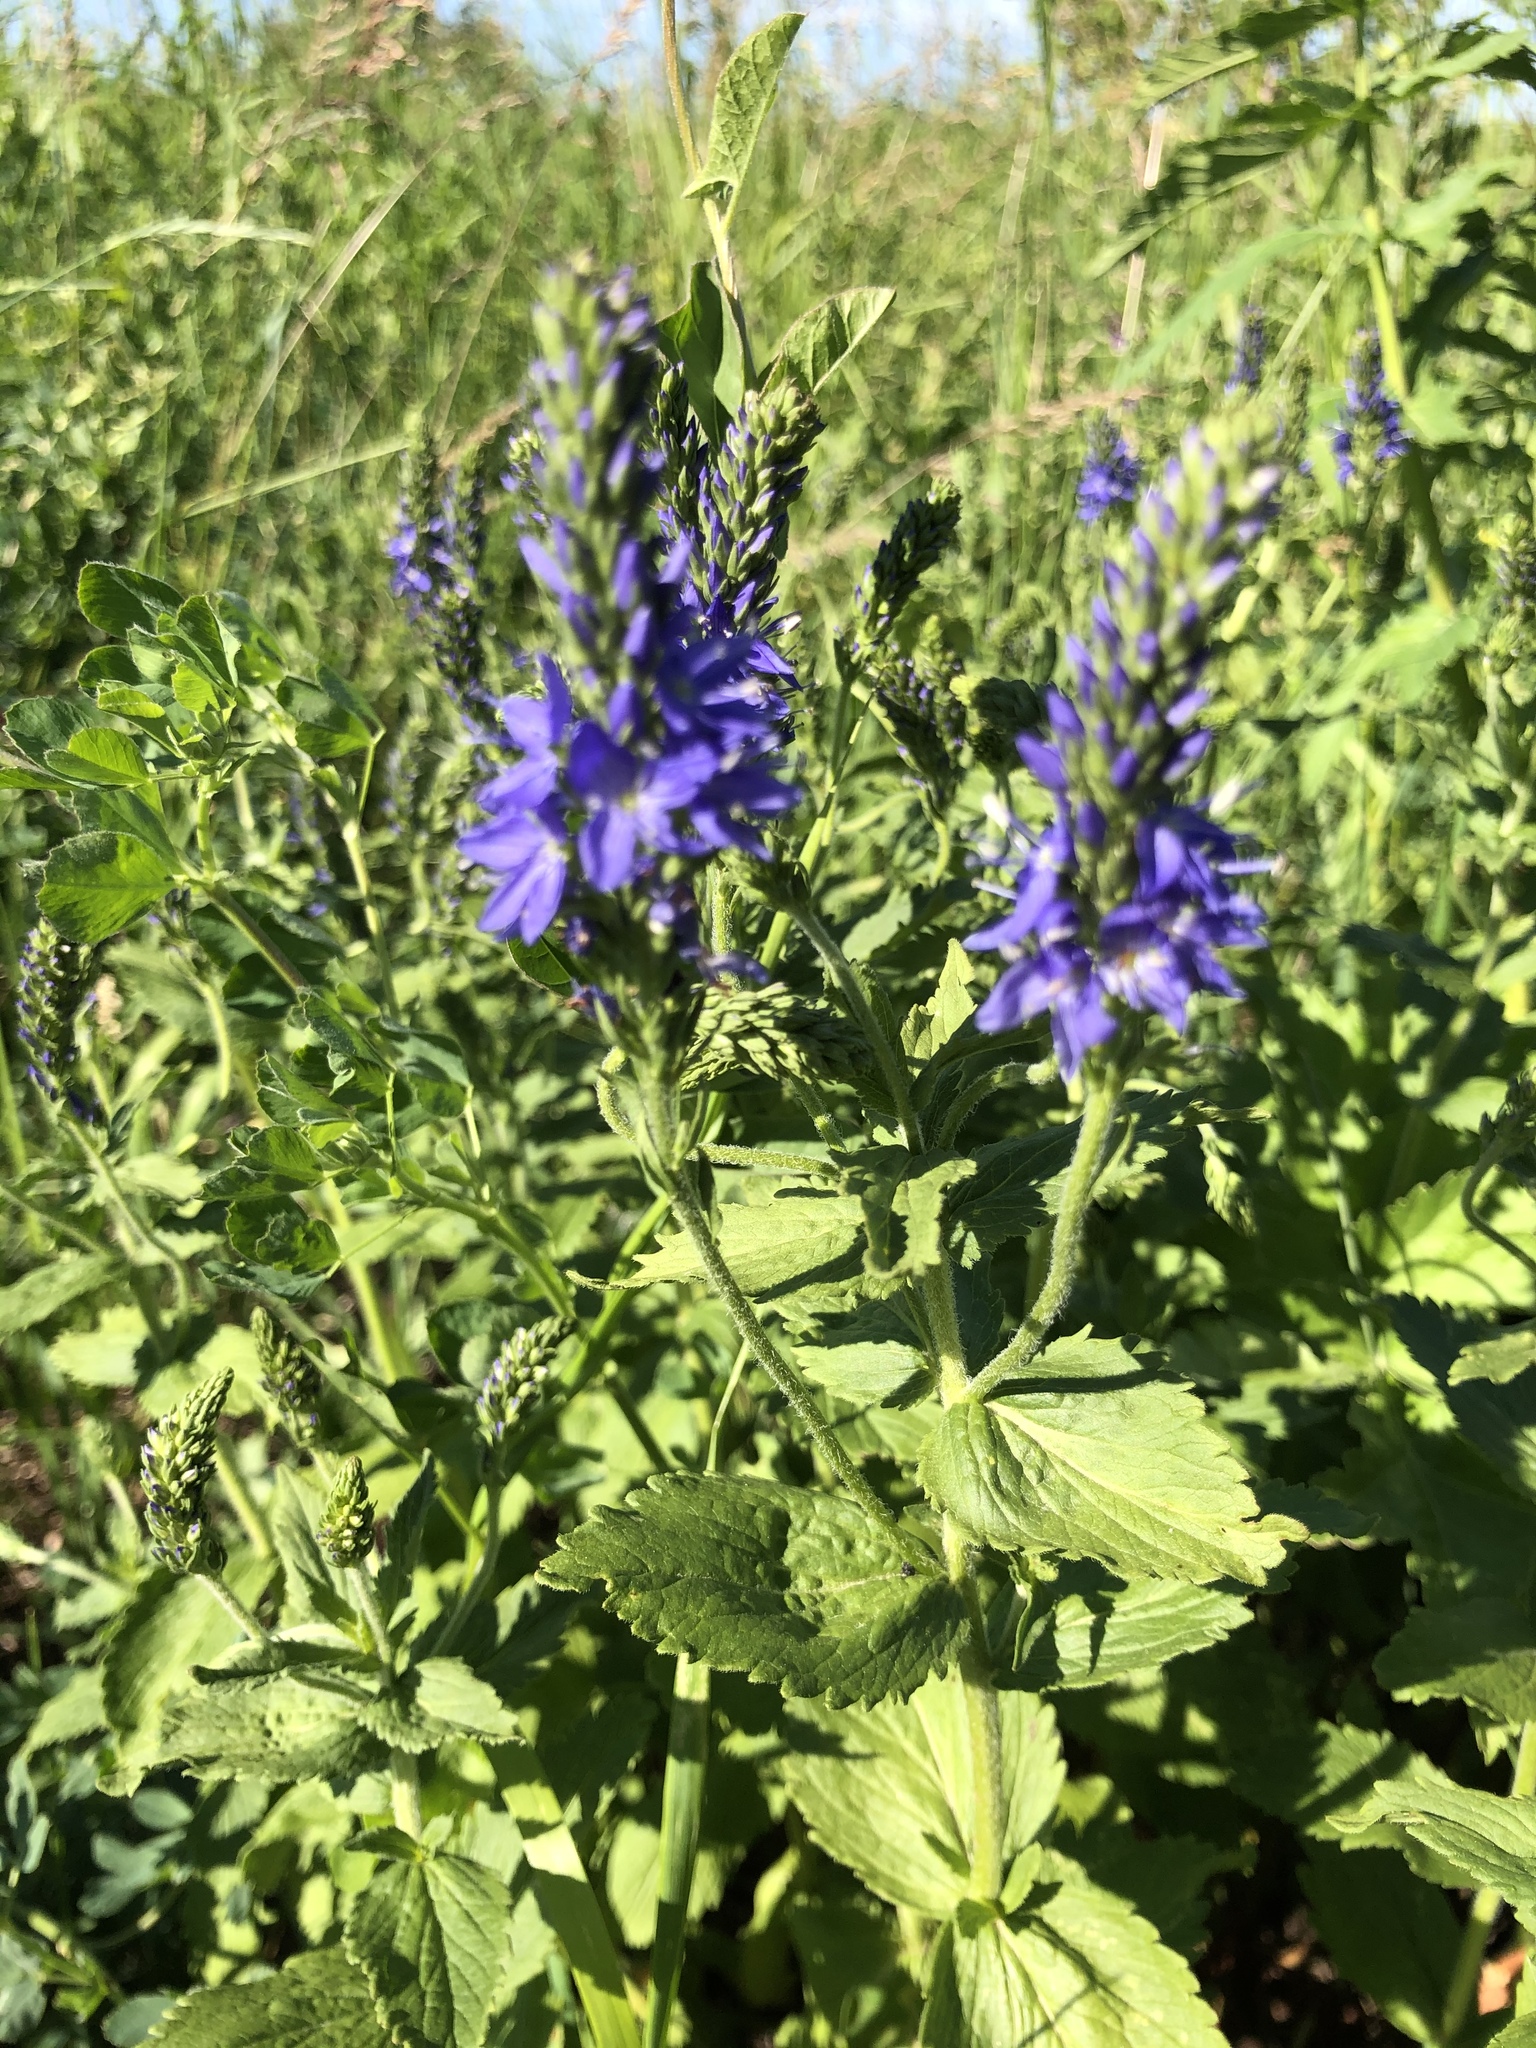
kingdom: Plantae
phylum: Tracheophyta
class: Magnoliopsida
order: Lamiales
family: Plantaginaceae
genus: Veronica
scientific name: Veronica teucrium
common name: Large speedwell
